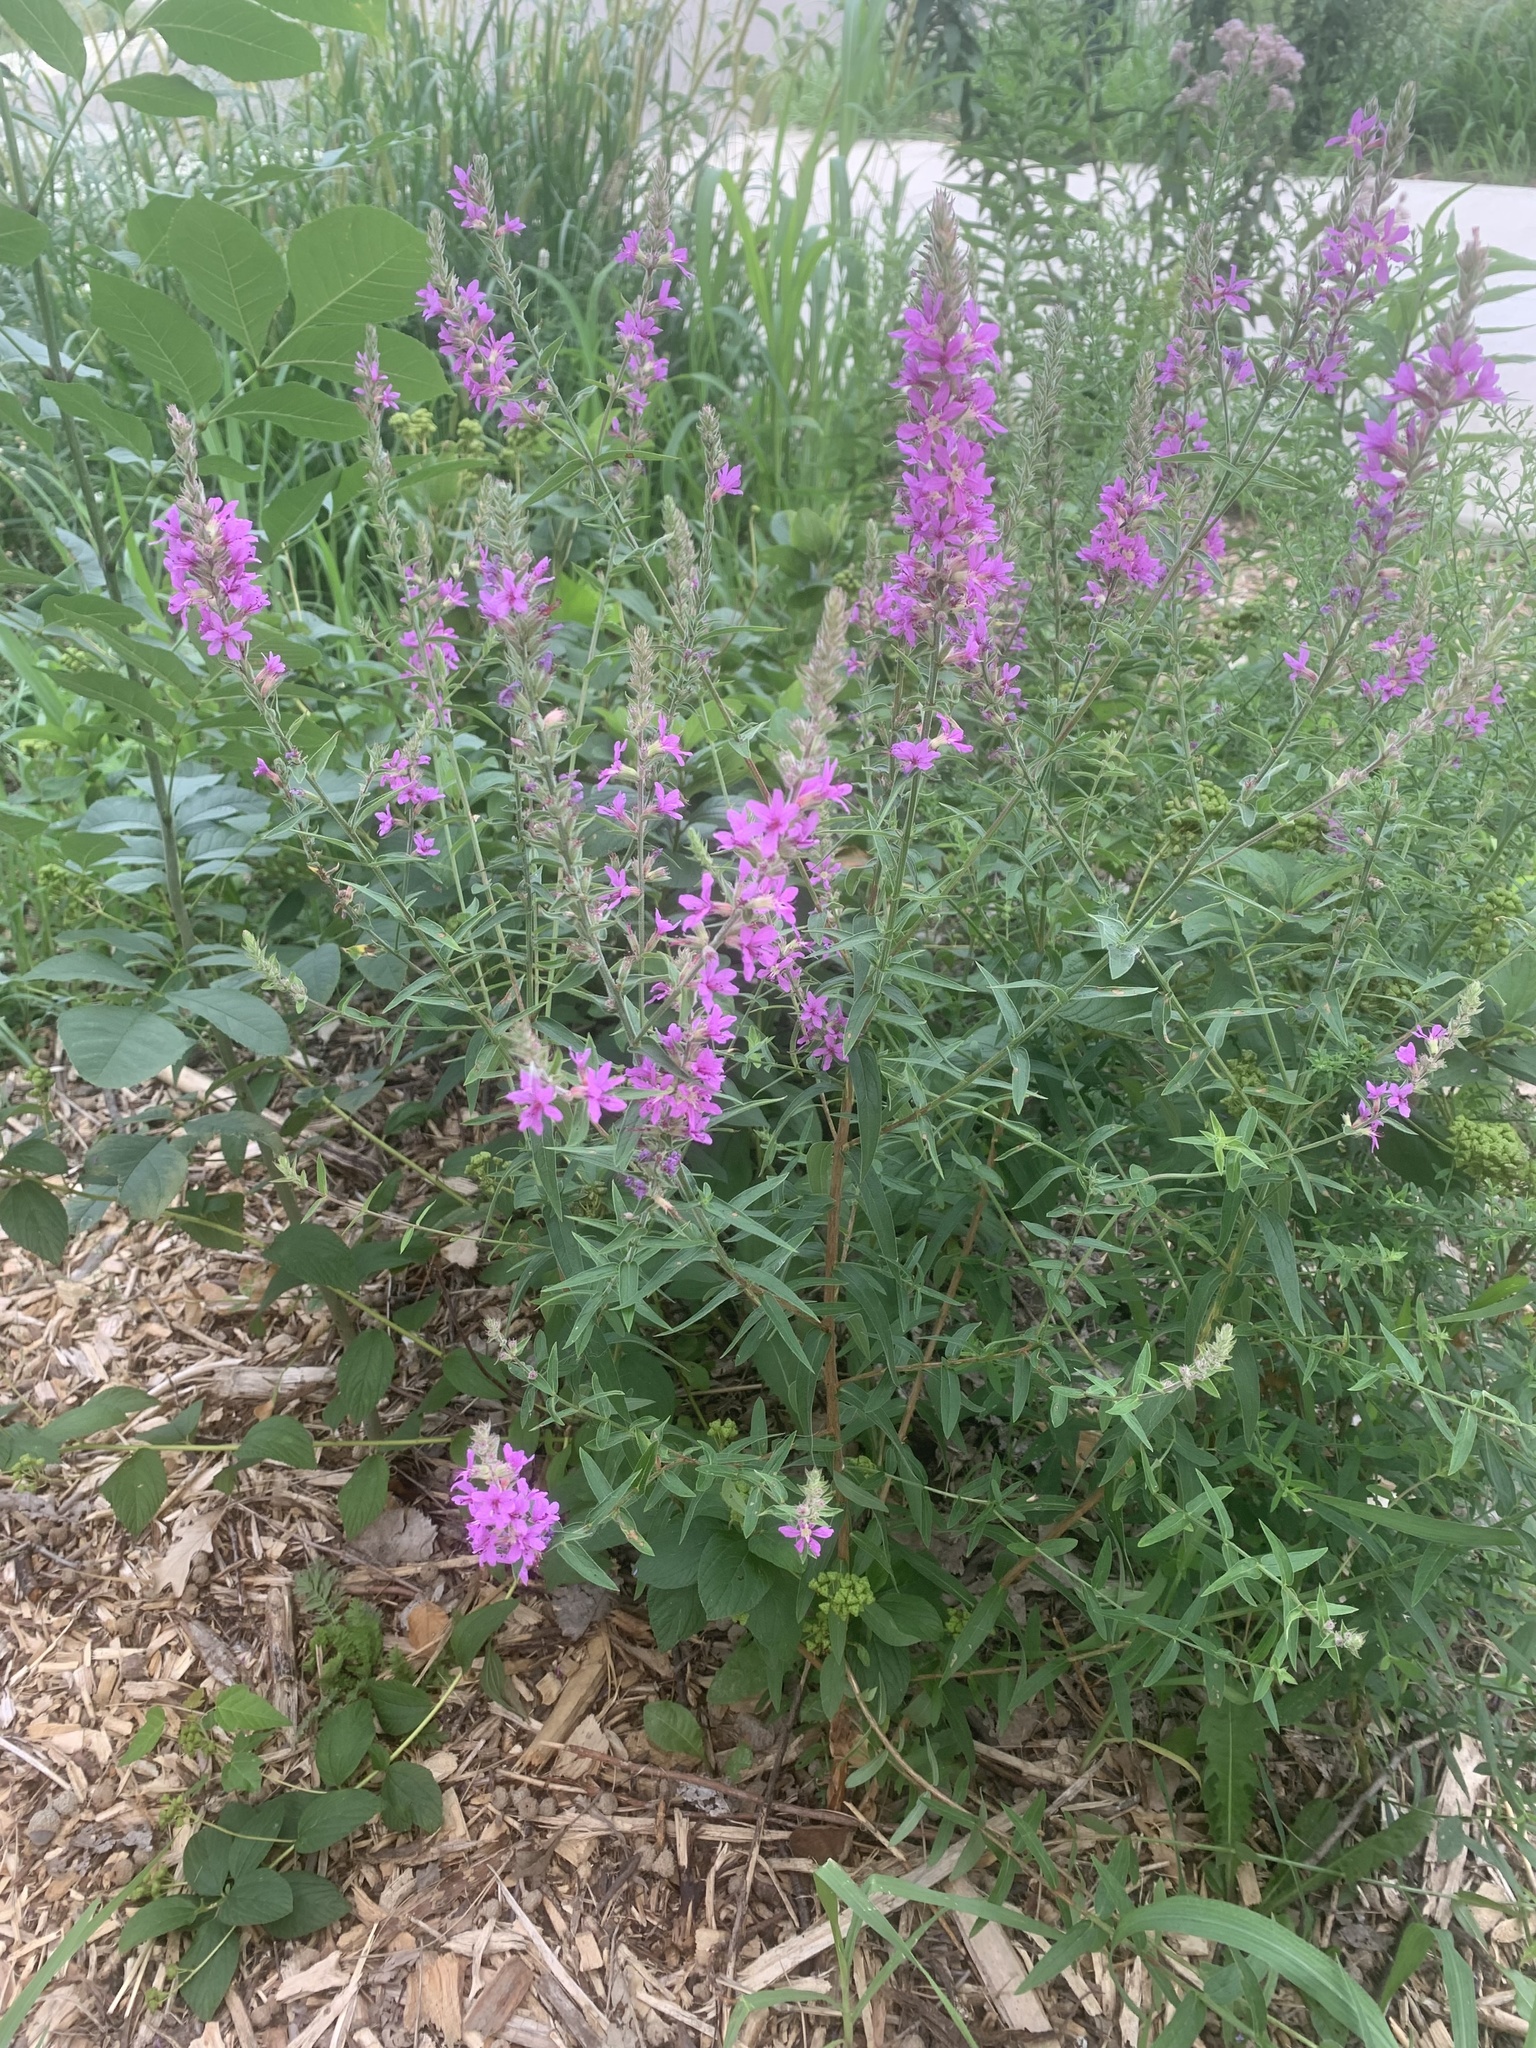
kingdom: Plantae
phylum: Tracheophyta
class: Magnoliopsida
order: Myrtales
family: Lythraceae
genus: Lythrum
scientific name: Lythrum salicaria
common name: Purple loosestrife
